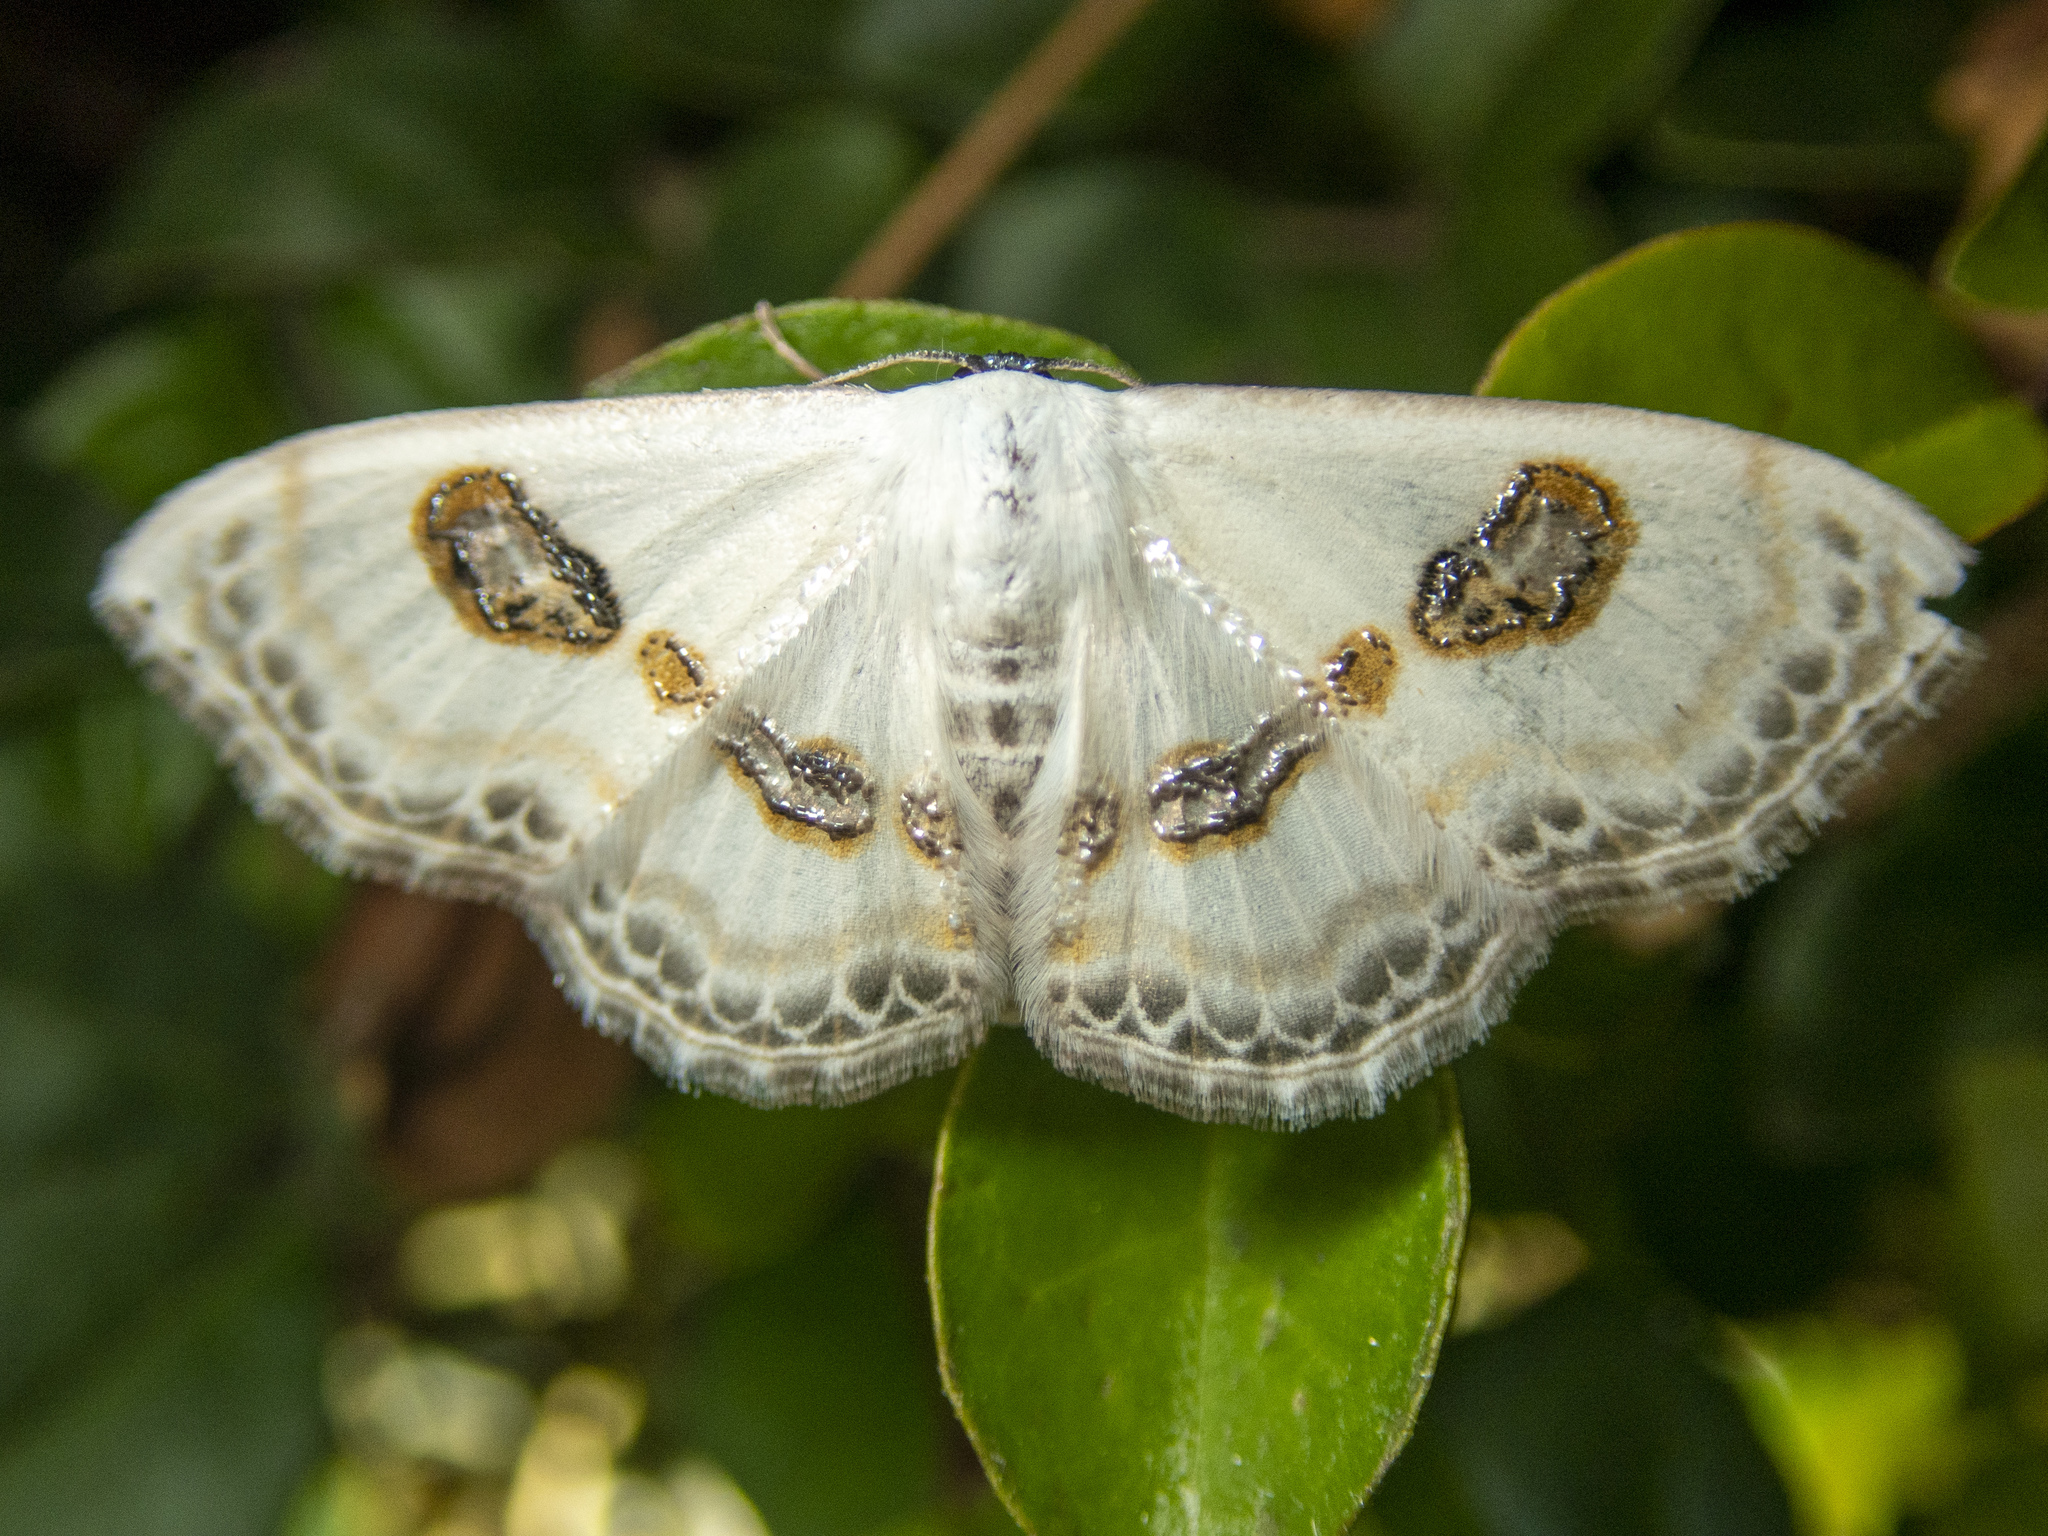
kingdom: Animalia
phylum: Arthropoda
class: Insecta
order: Lepidoptera
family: Geometridae
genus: Problepsis
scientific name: Problepsis vulgaris
